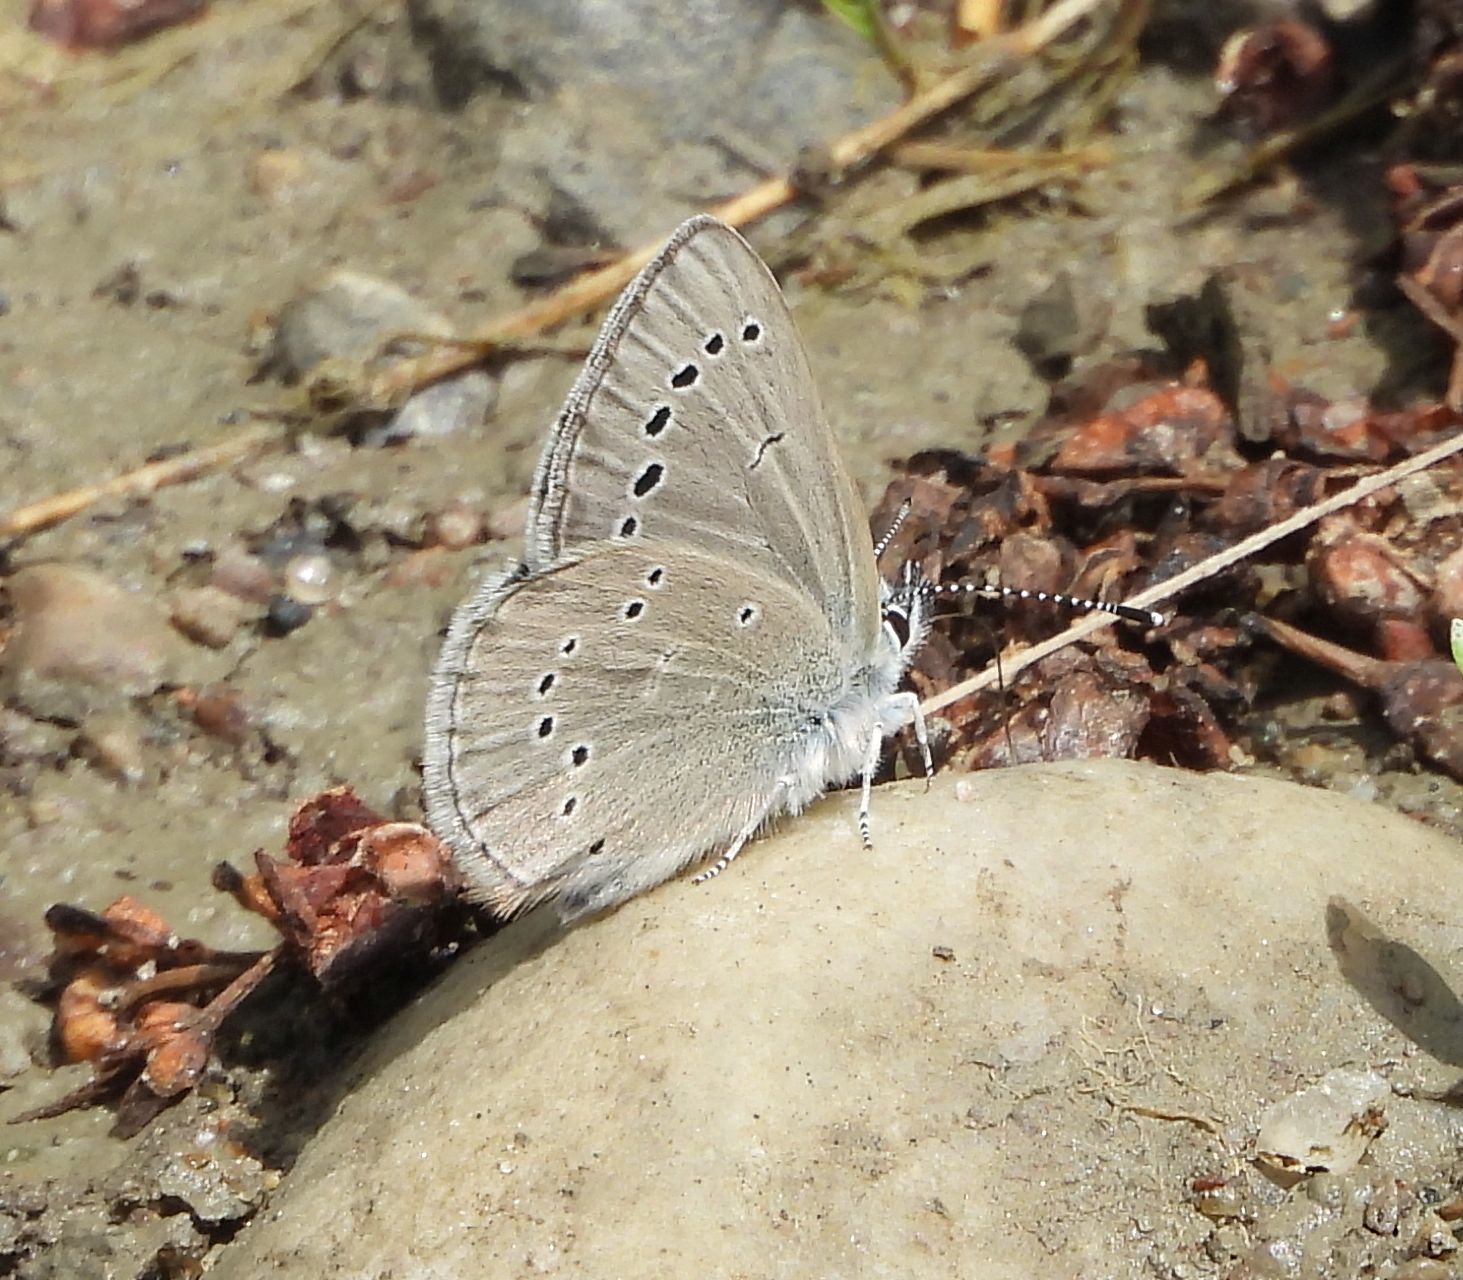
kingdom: Animalia
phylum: Arthropoda
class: Insecta
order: Lepidoptera
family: Lycaenidae
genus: Glaucopsyche
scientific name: Glaucopsyche lygdamus
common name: Silvery blue
